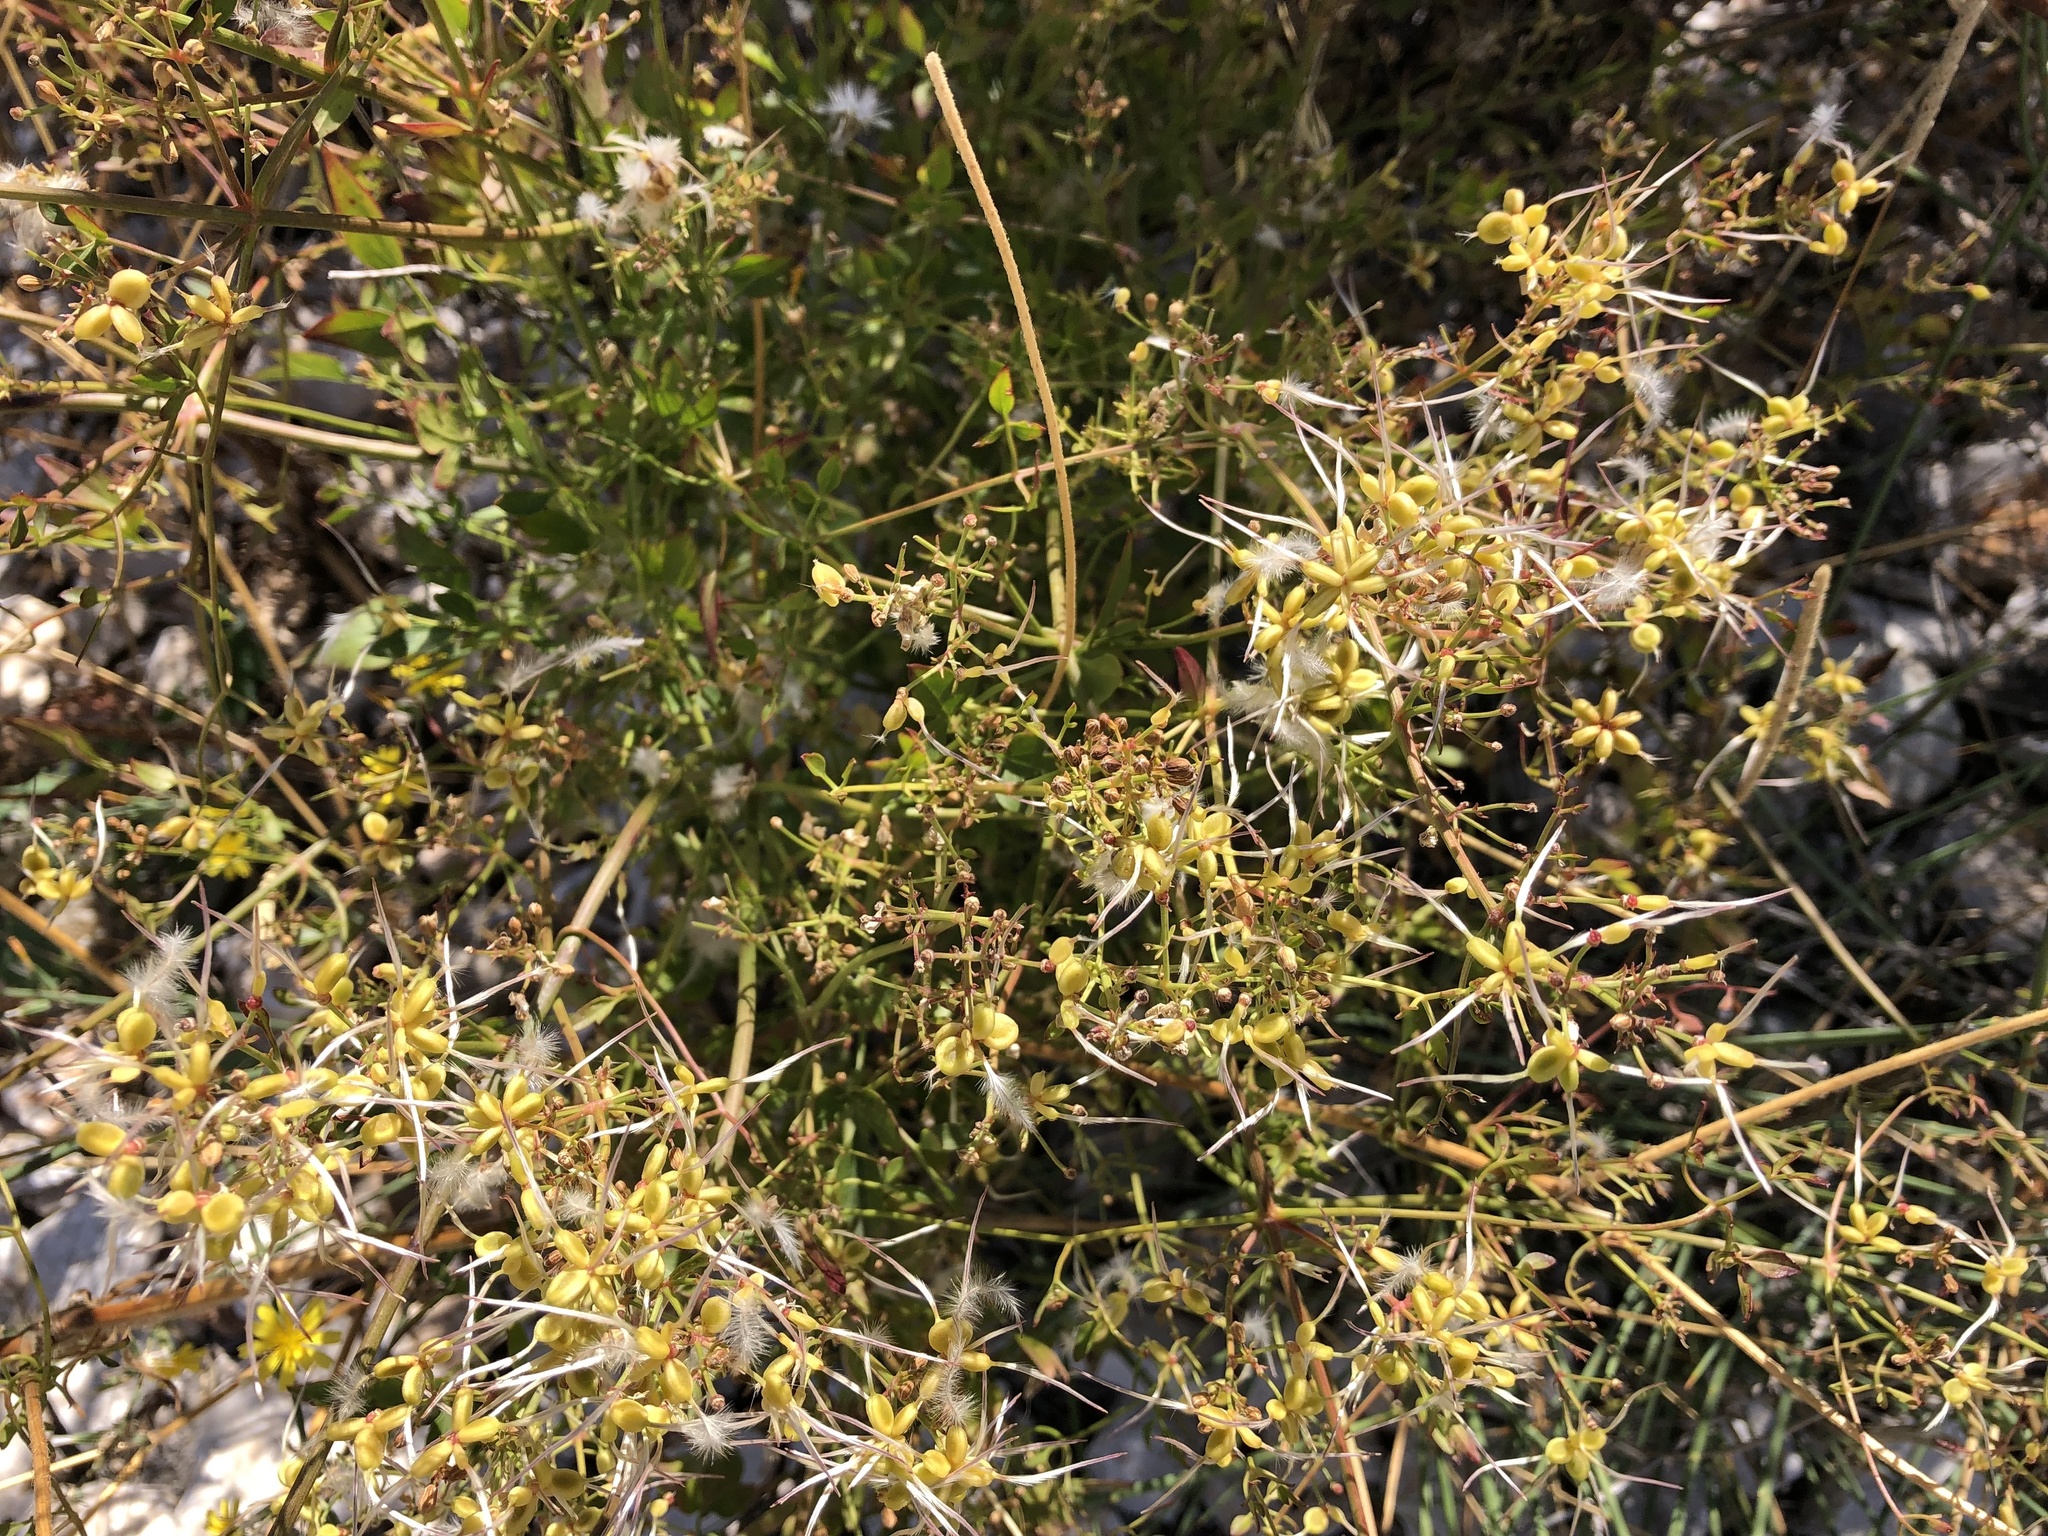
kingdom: Plantae
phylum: Tracheophyta
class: Magnoliopsida
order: Ranunculales
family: Ranunculaceae
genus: Clematis
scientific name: Clematis flammula
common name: Virgin's-bower
